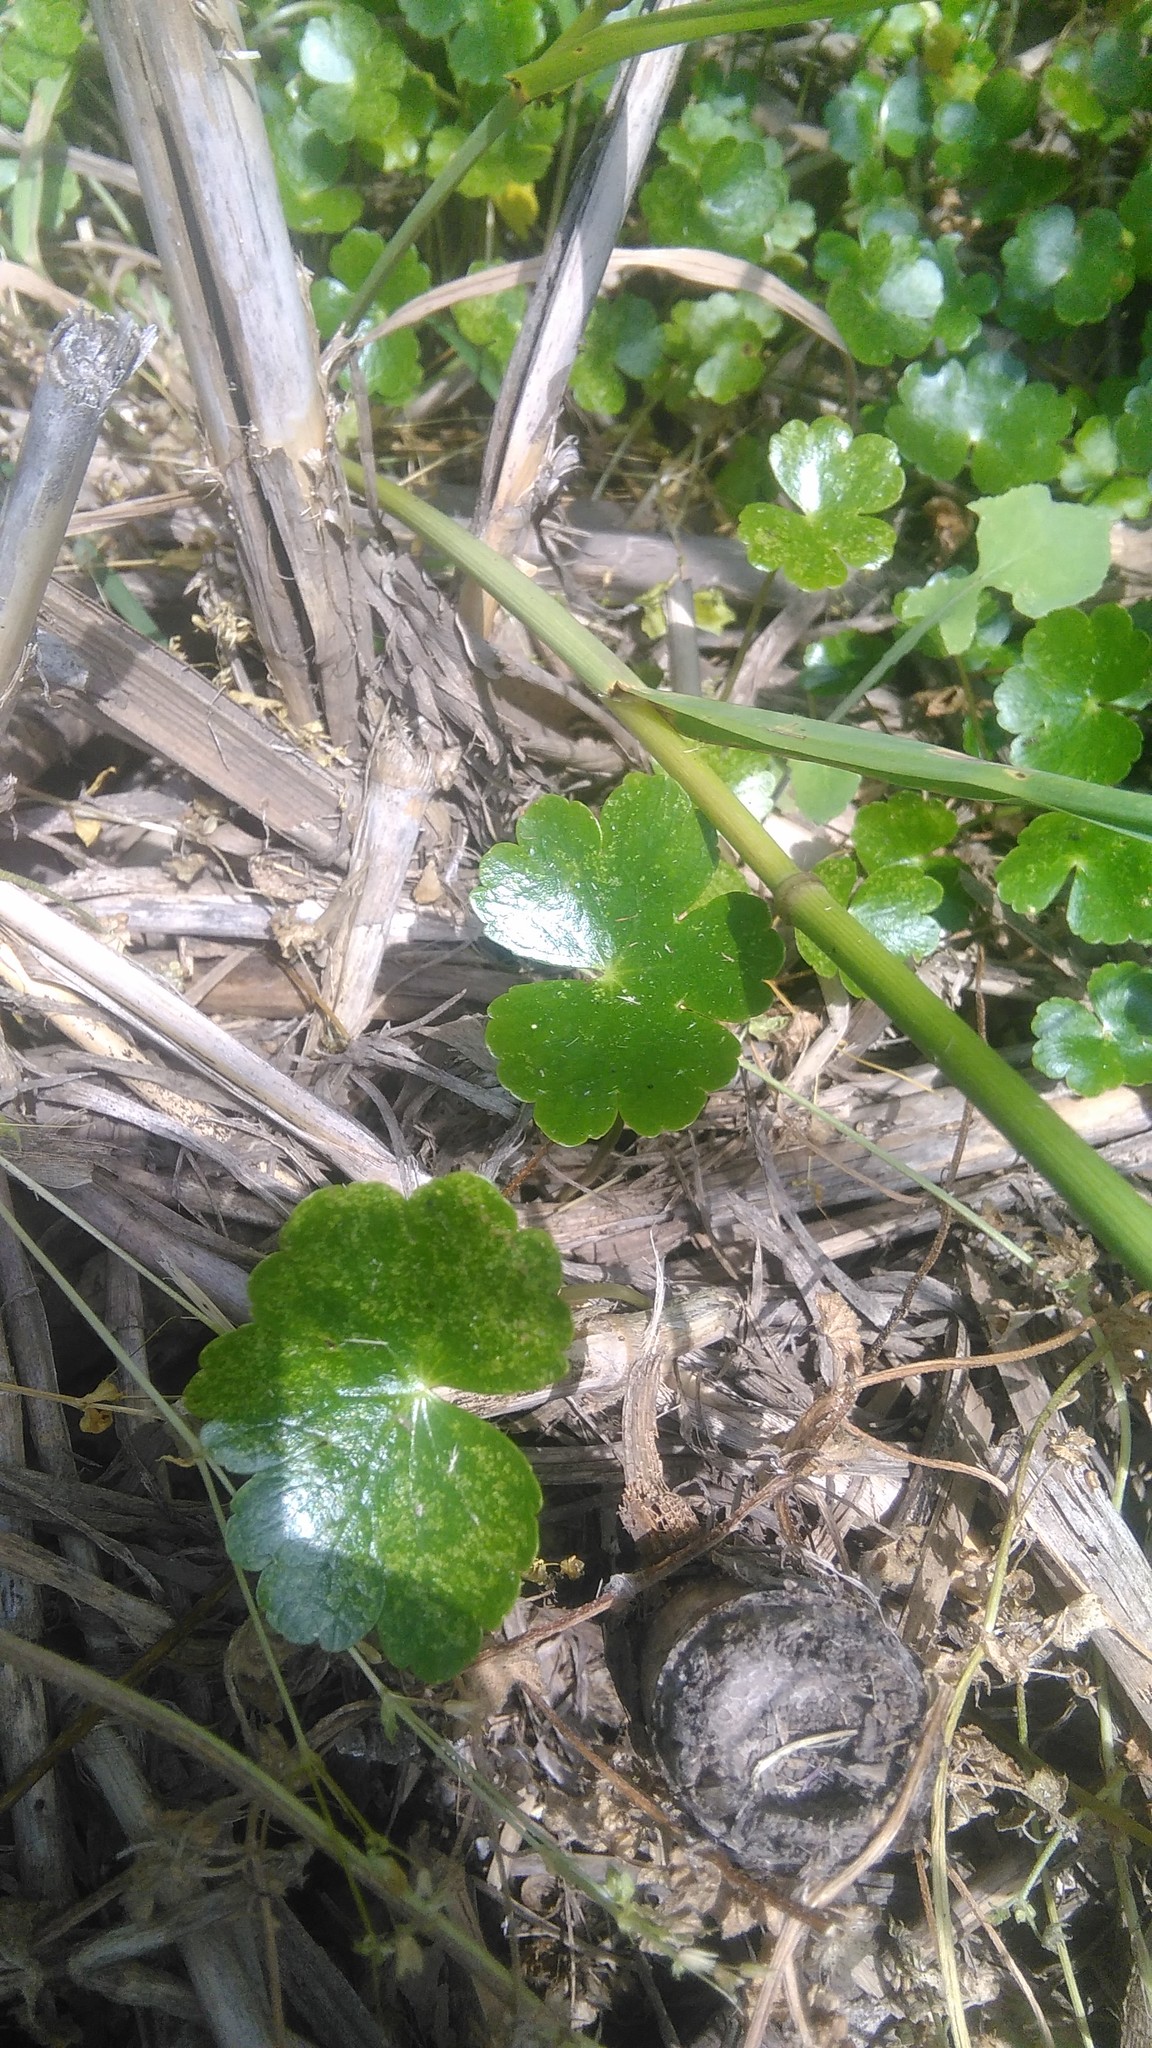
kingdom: Plantae
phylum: Tracheophyta
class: Magnoliopsida
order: Apiales
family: Araliaceae
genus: Hydrocotyle
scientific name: Hydrocotyle ranunculoides
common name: Floating pennywort
